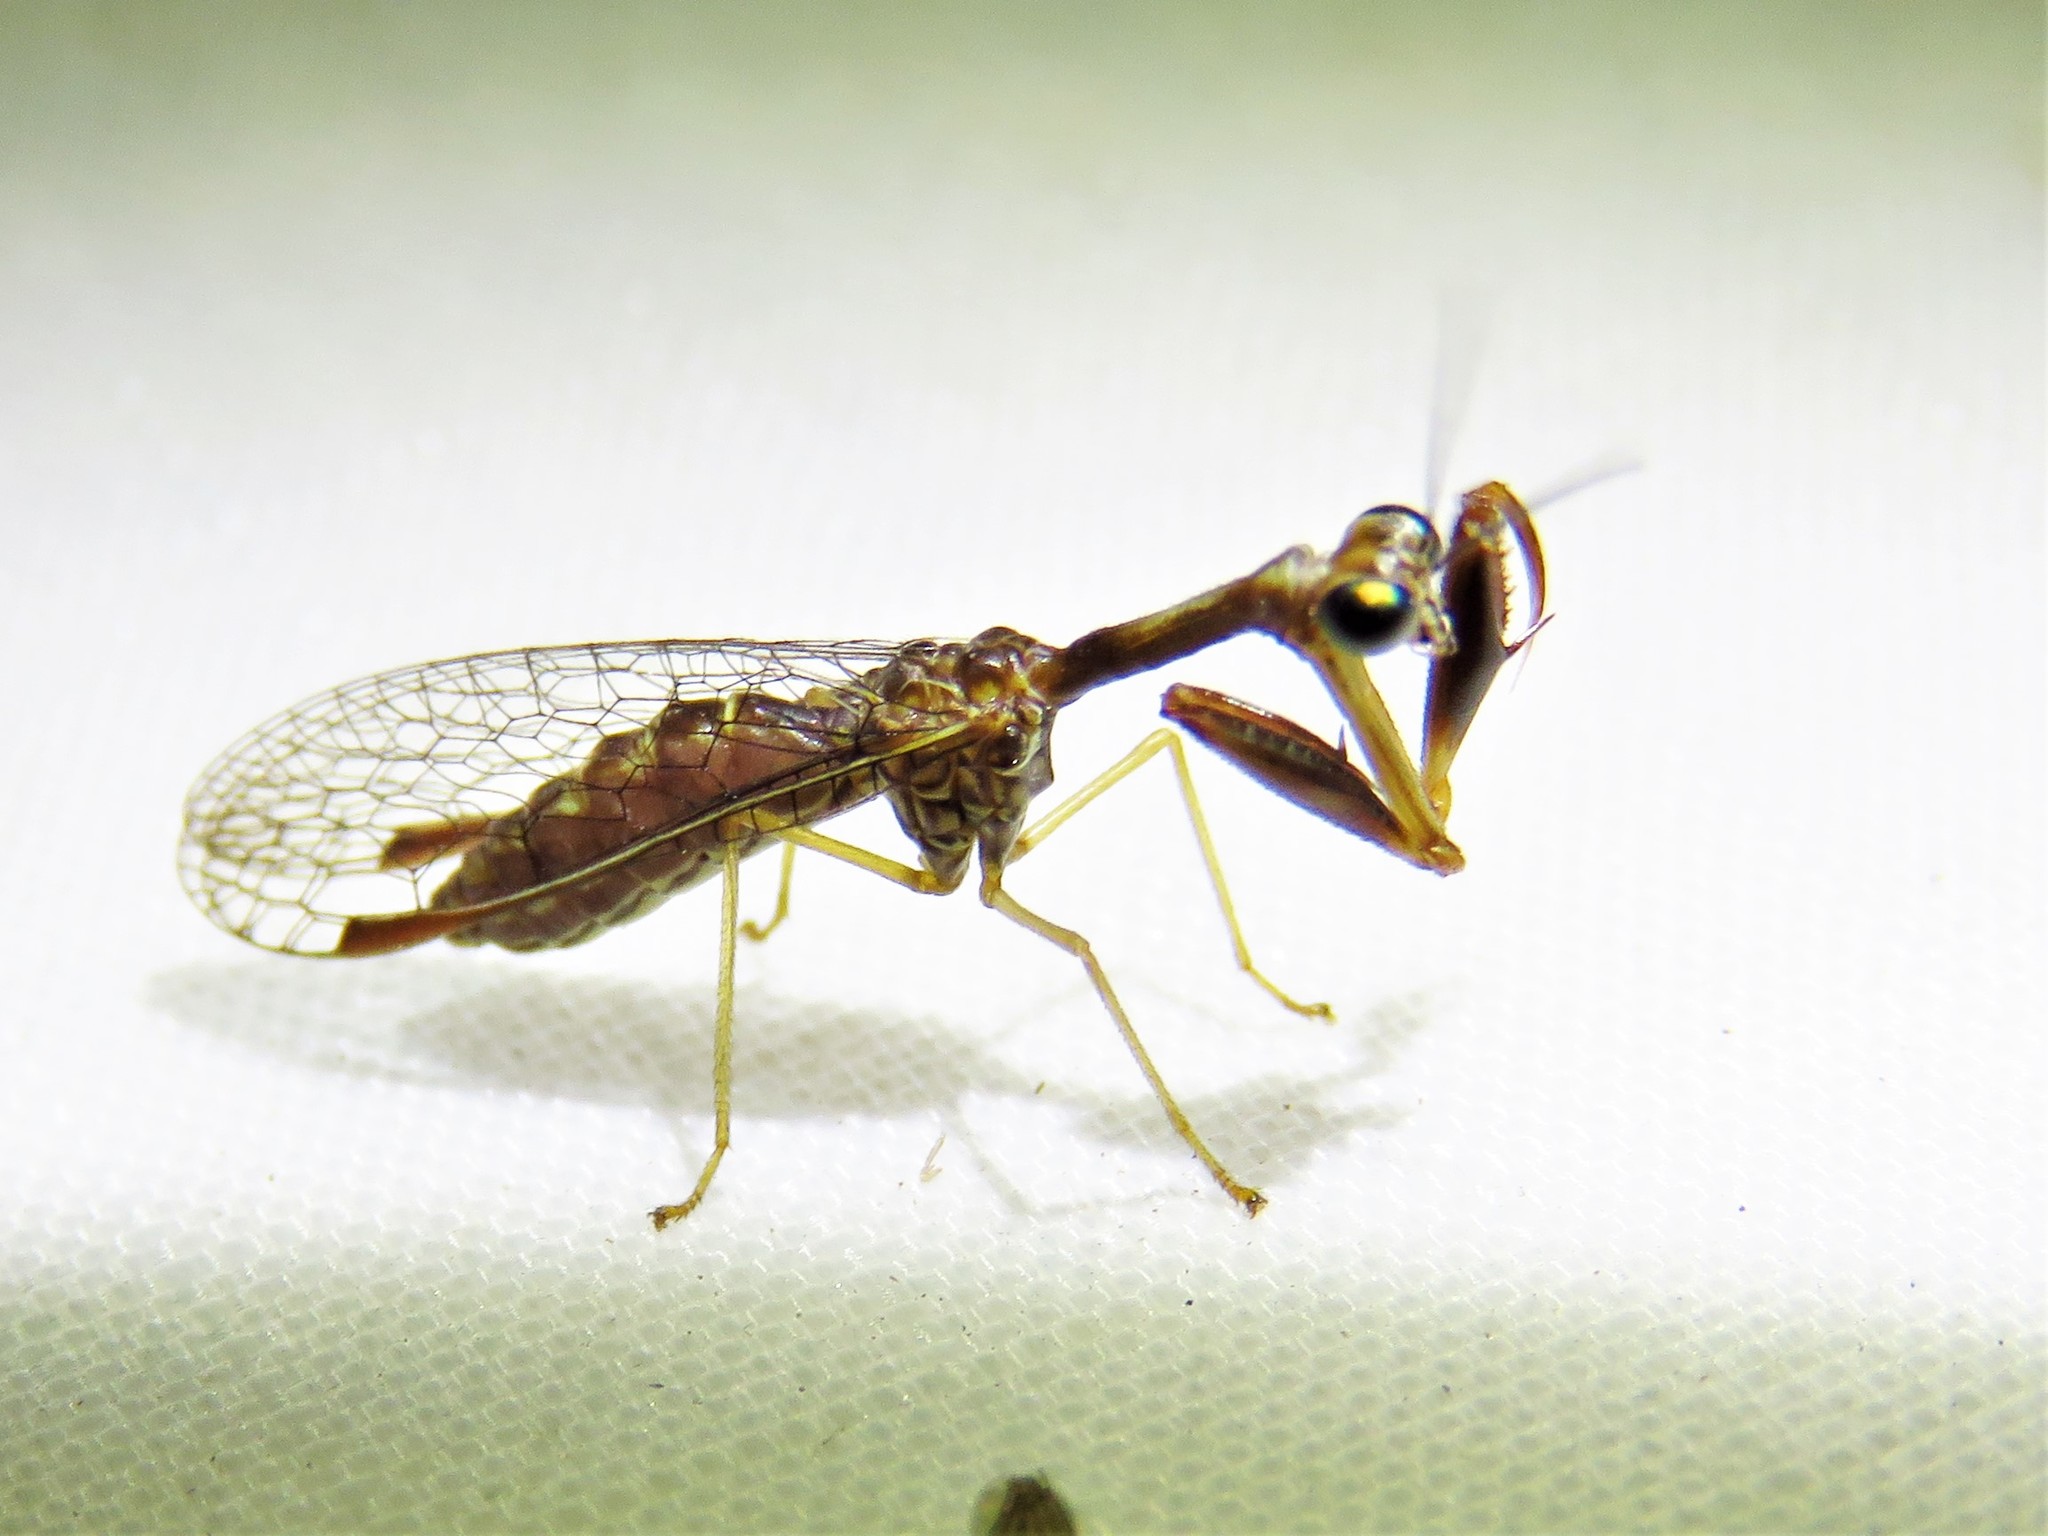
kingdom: Animalia
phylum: Arthropoda
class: Insecta
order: Neuroptera
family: Mantispidae
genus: Leptomantispa
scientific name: Leptomantispa pulchella
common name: Stevens's mantidfly
